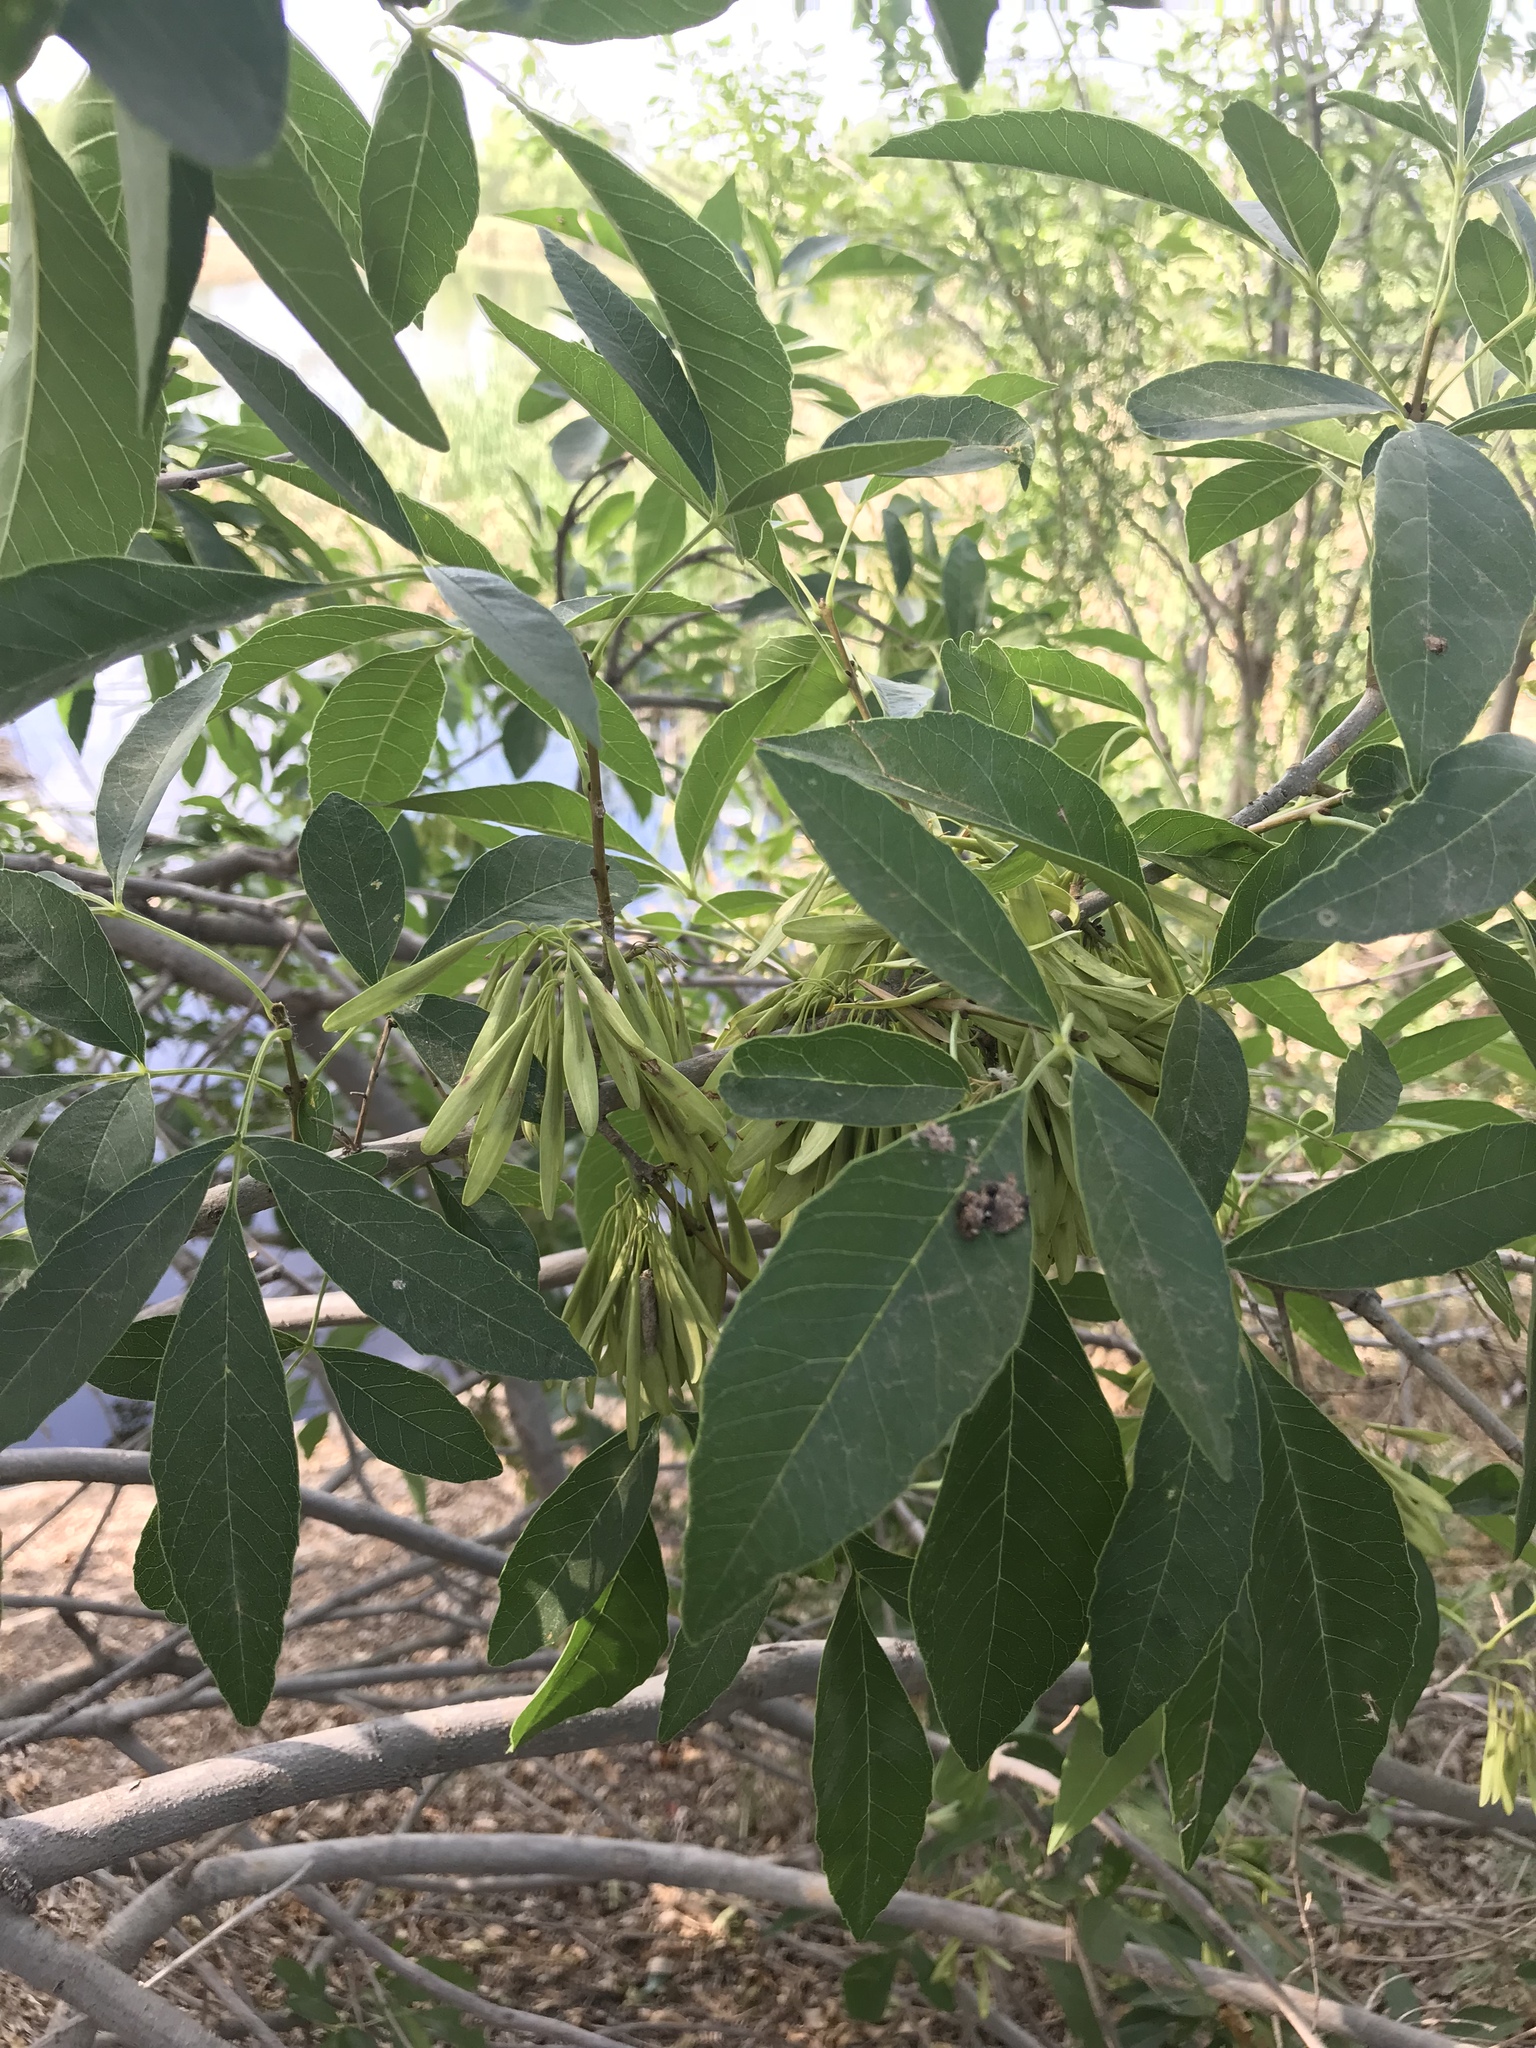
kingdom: Plantae
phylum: Tracheophyta
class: Magnoliopsida
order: Lamiales
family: Oleaceae
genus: Fraxinus
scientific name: Fraxinus velutina
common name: Arizon ash
